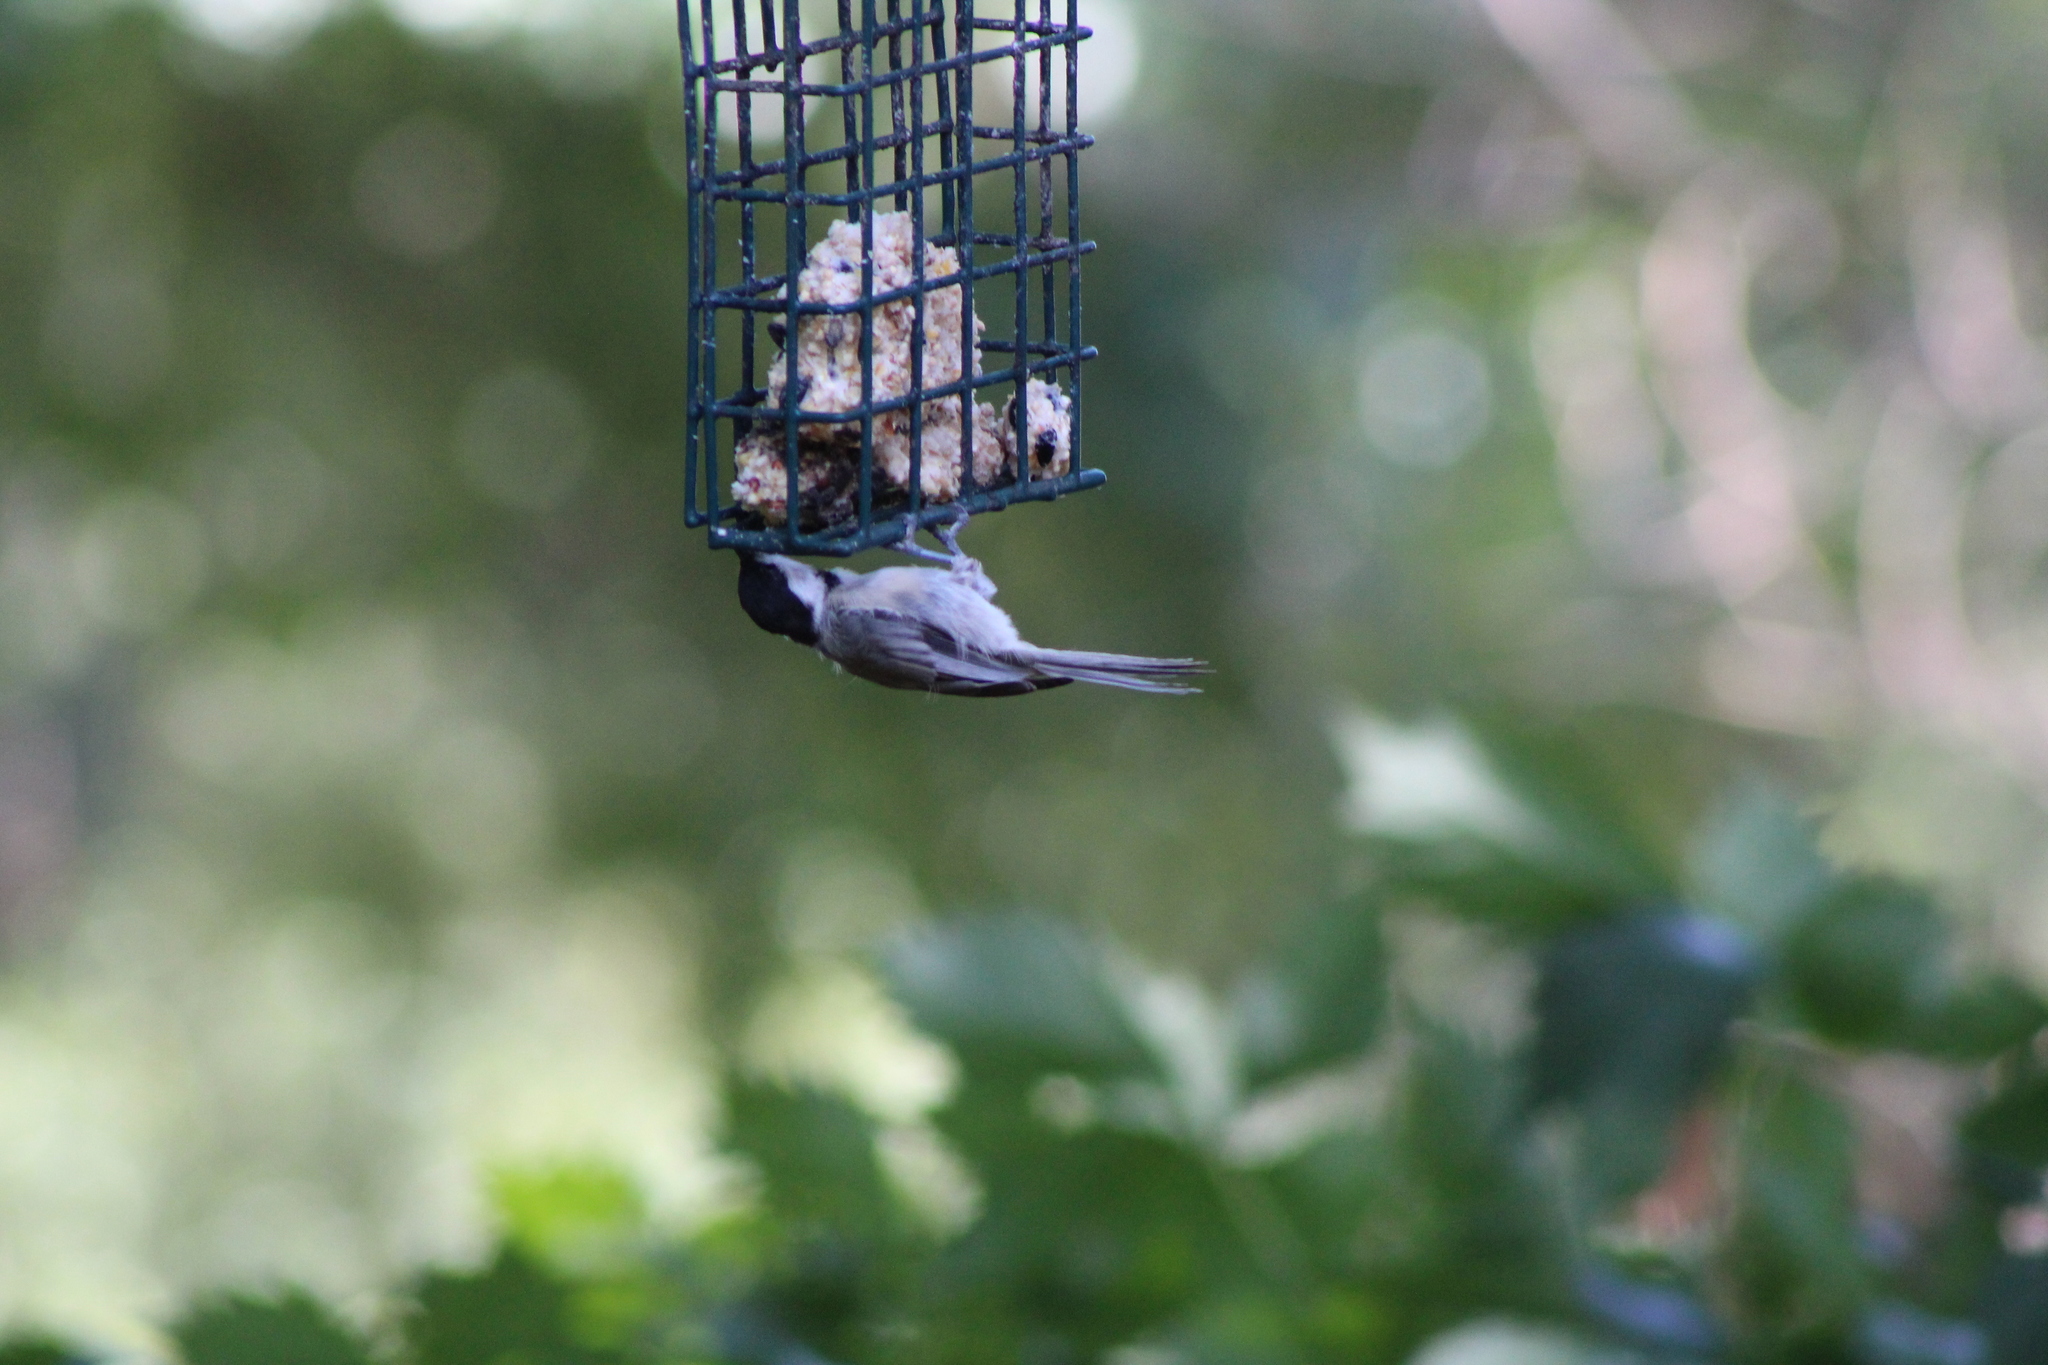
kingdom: Animalia
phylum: Chordata
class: Aves
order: Passeriformes
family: Paridae
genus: Poecile
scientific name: Poecile carolinensis
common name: Carolina chickadee
